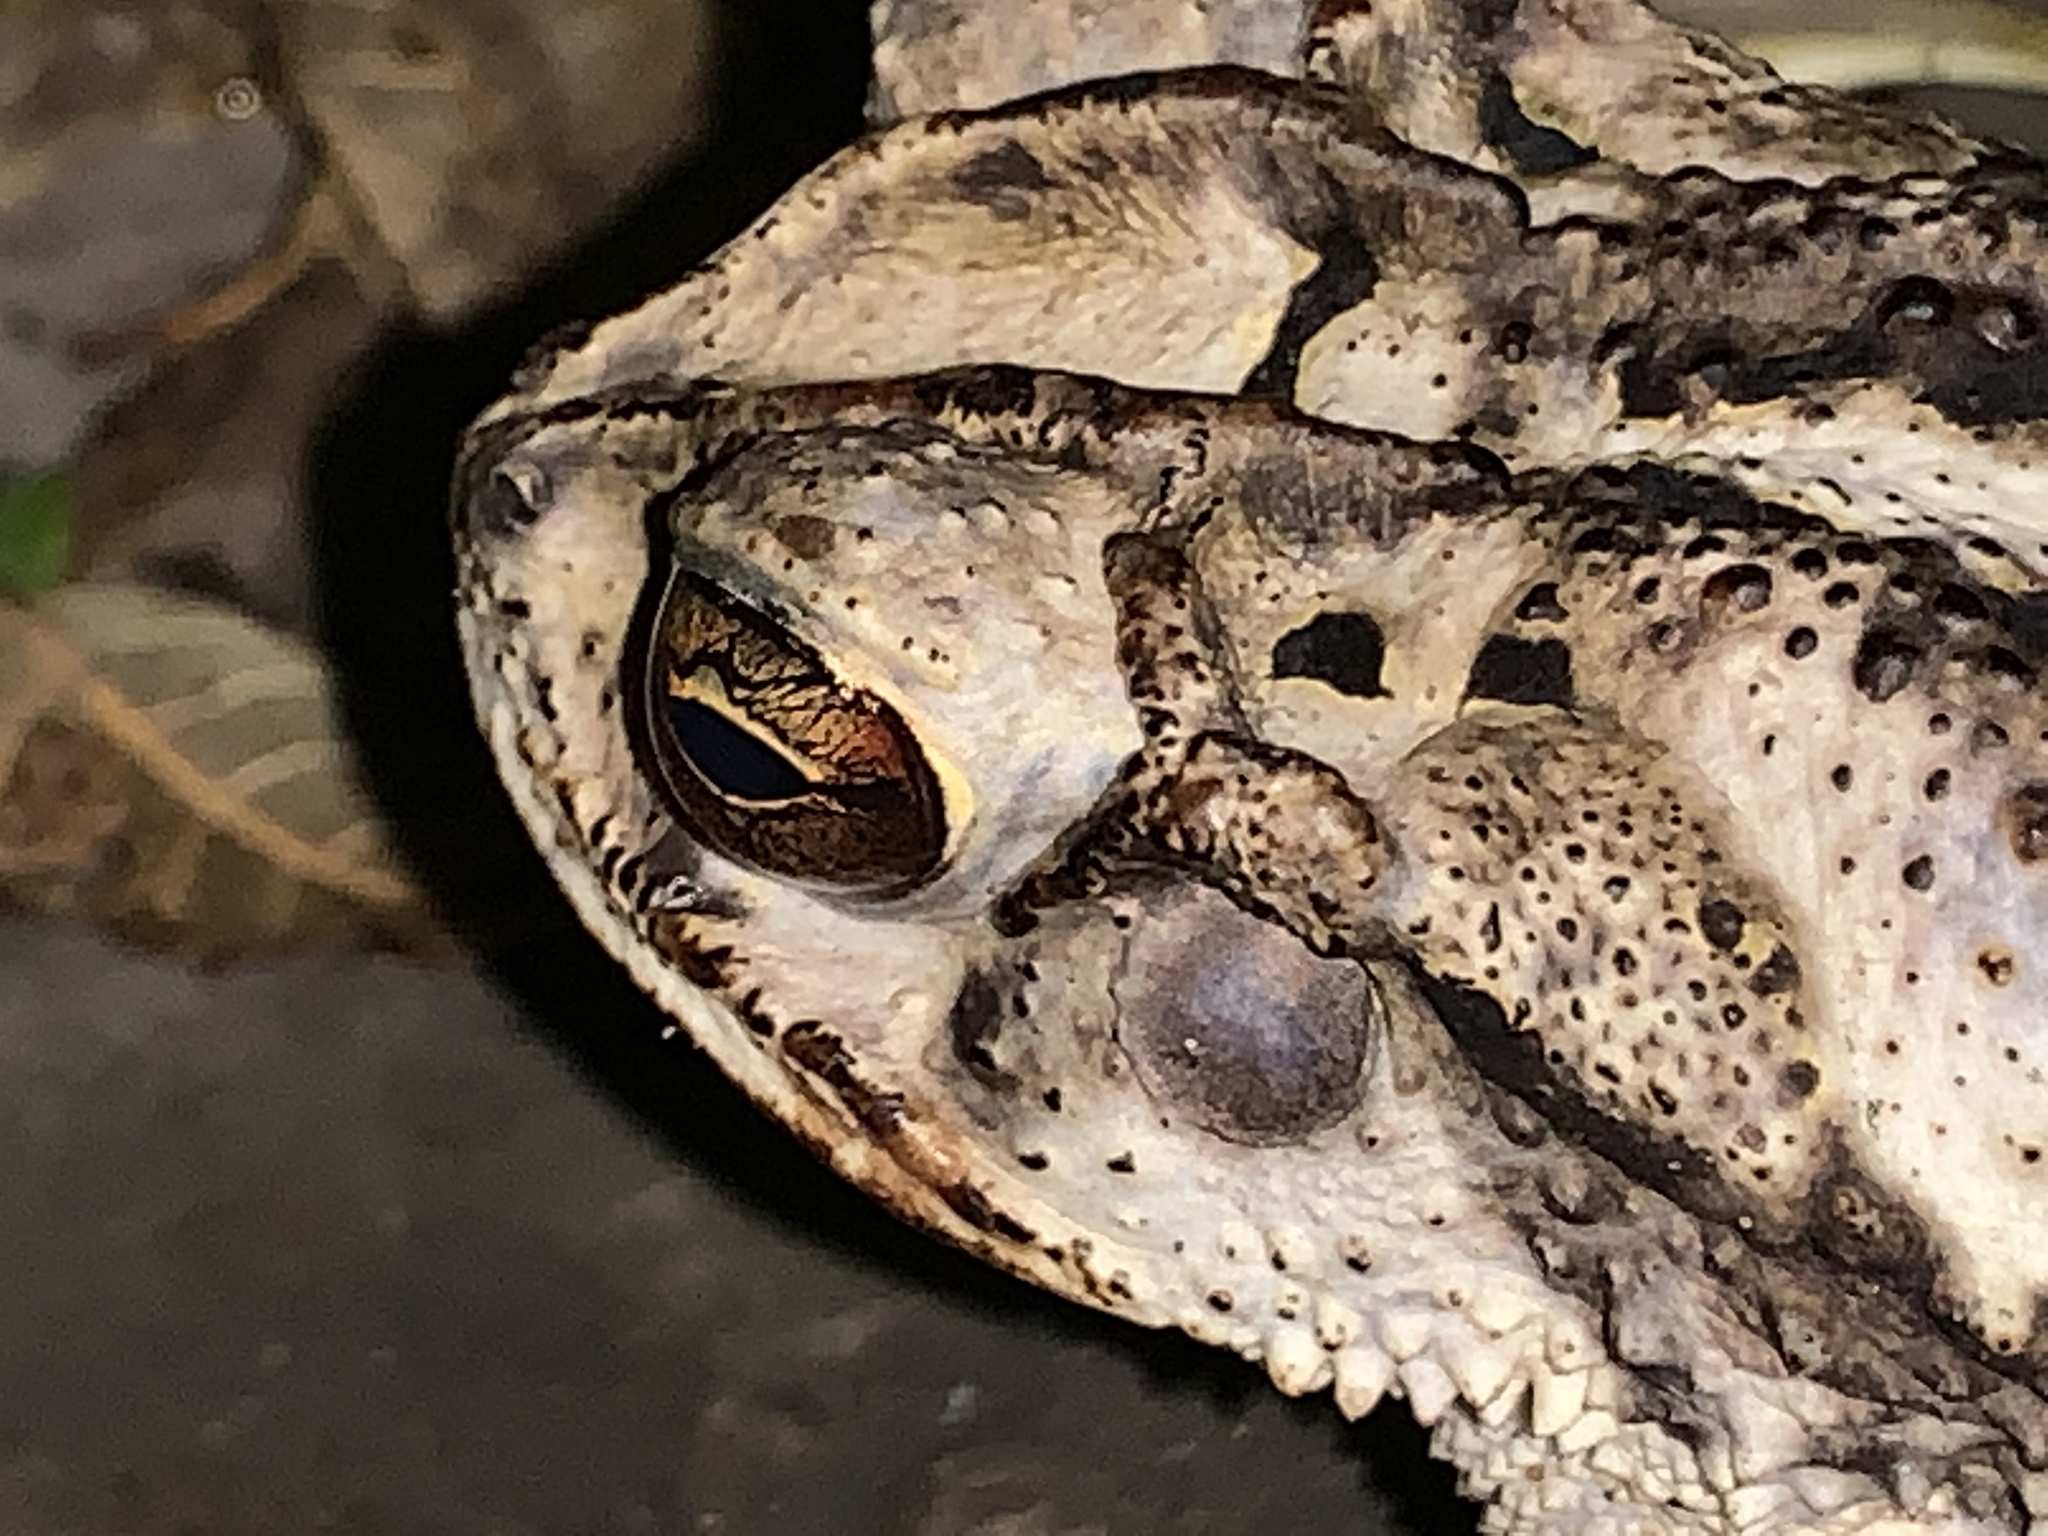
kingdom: Animalia
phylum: Chordata
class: Amphibia
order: Anura
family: Bufonidae
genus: Incilius
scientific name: Incilius nebulifer
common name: Gulf coast toad
